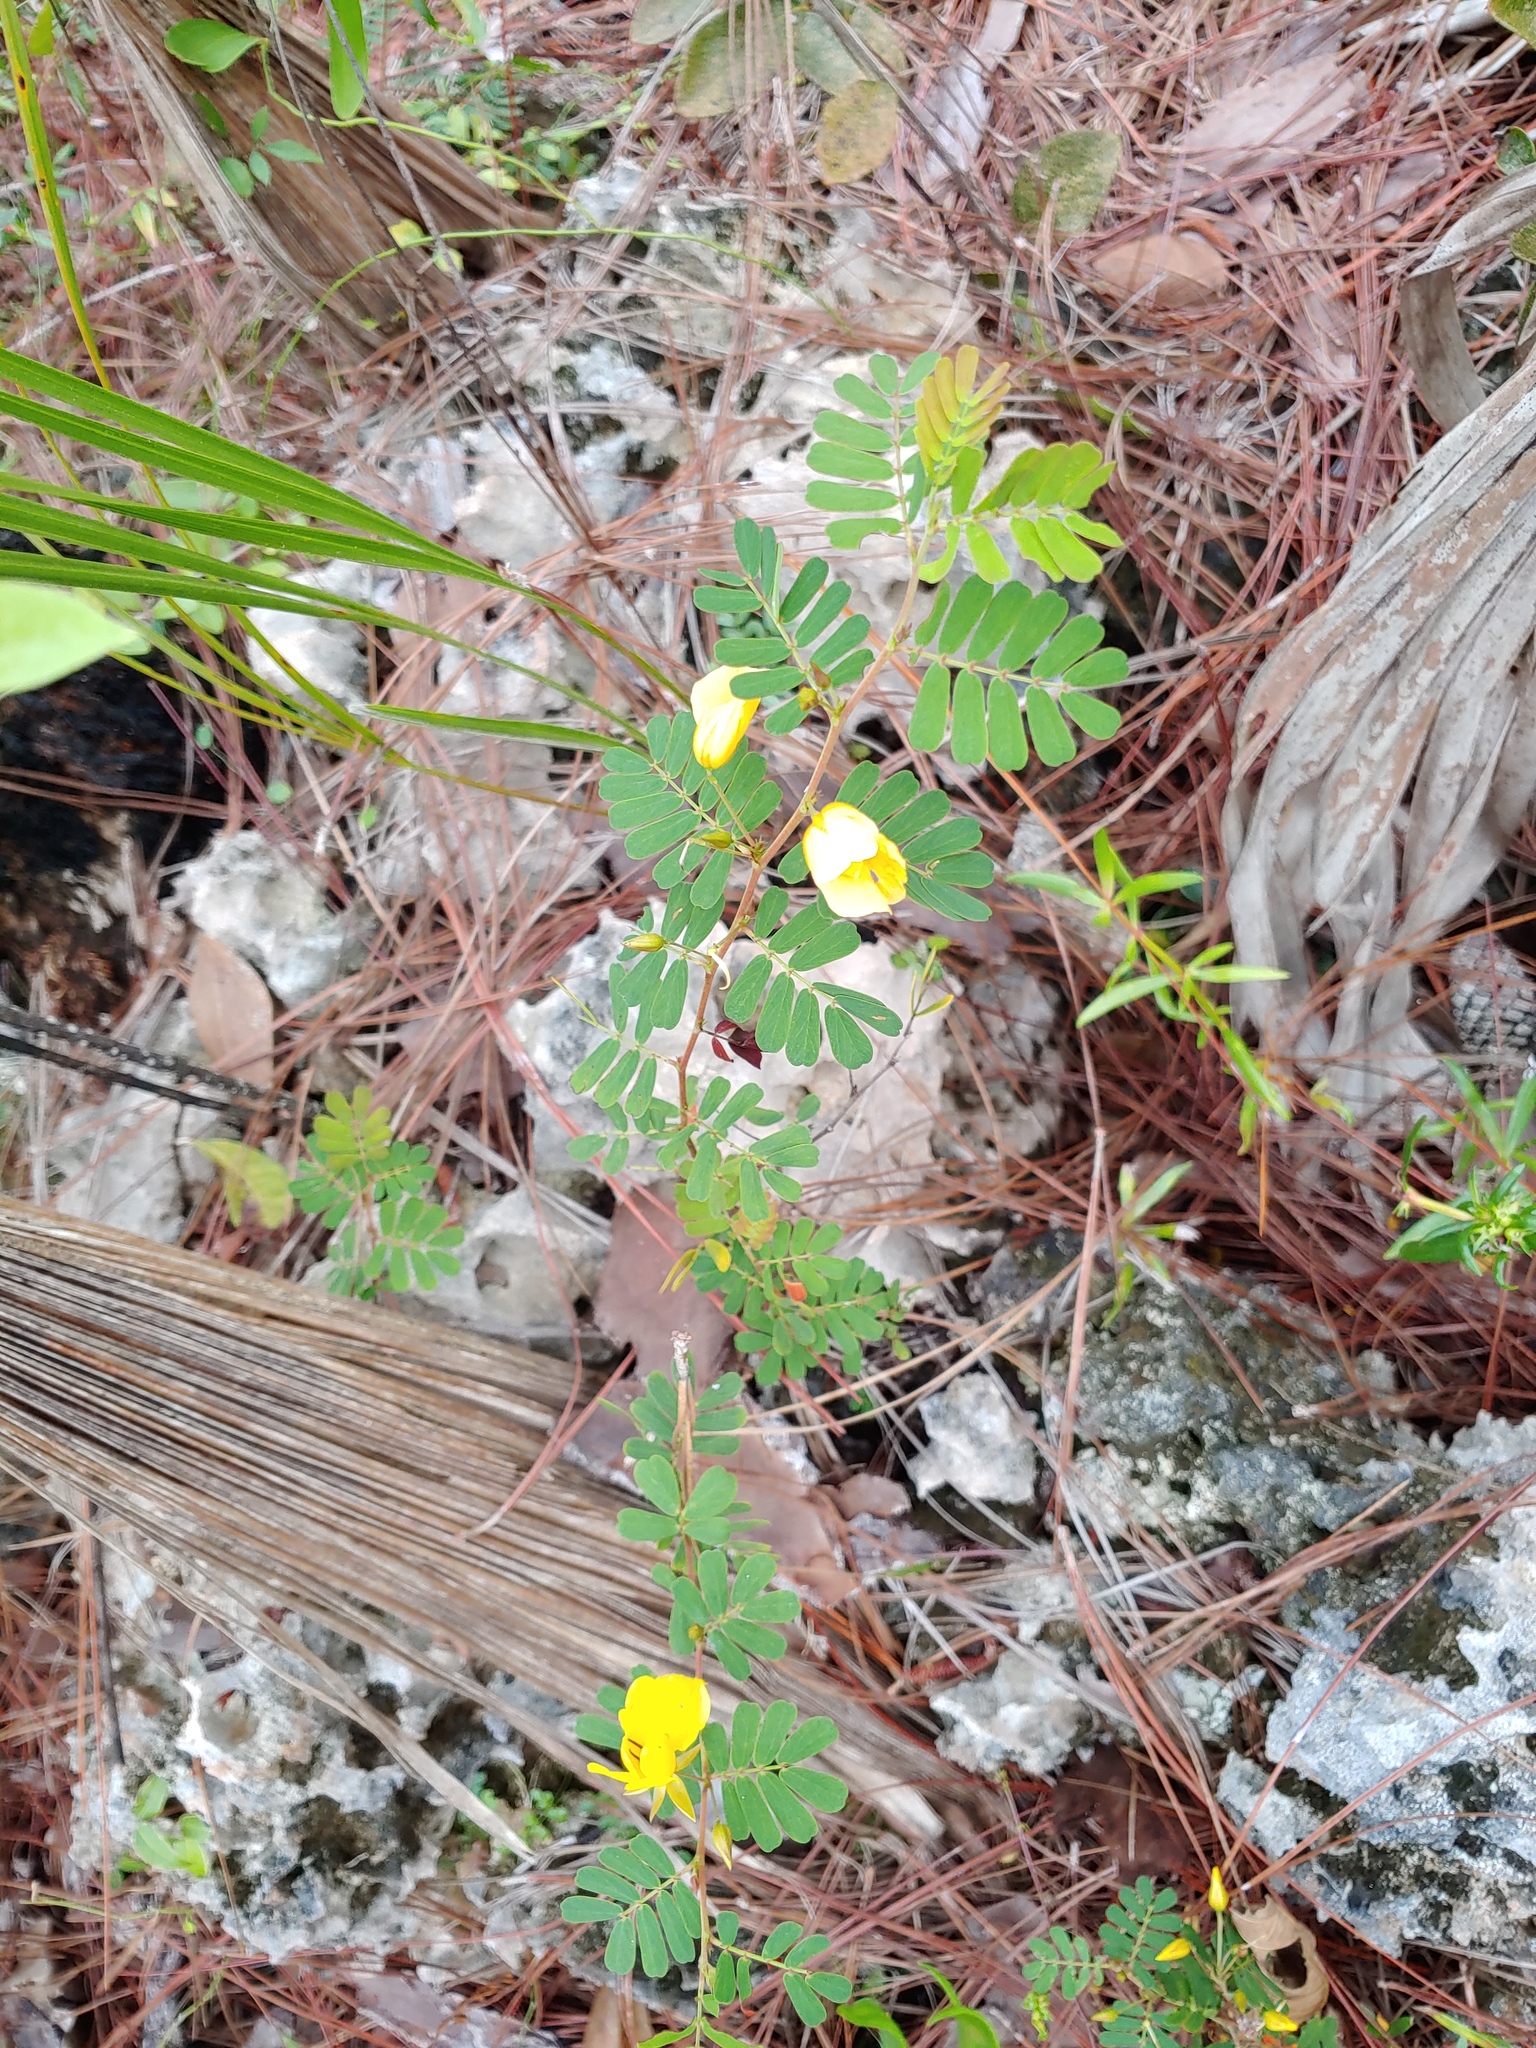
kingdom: Plantae
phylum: Tracheophyta
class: Magnoliopsida
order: Fabales
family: Fabaceae
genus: Chamaecrista
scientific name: Chamaecrista nictitans
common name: Sensitive cassia
